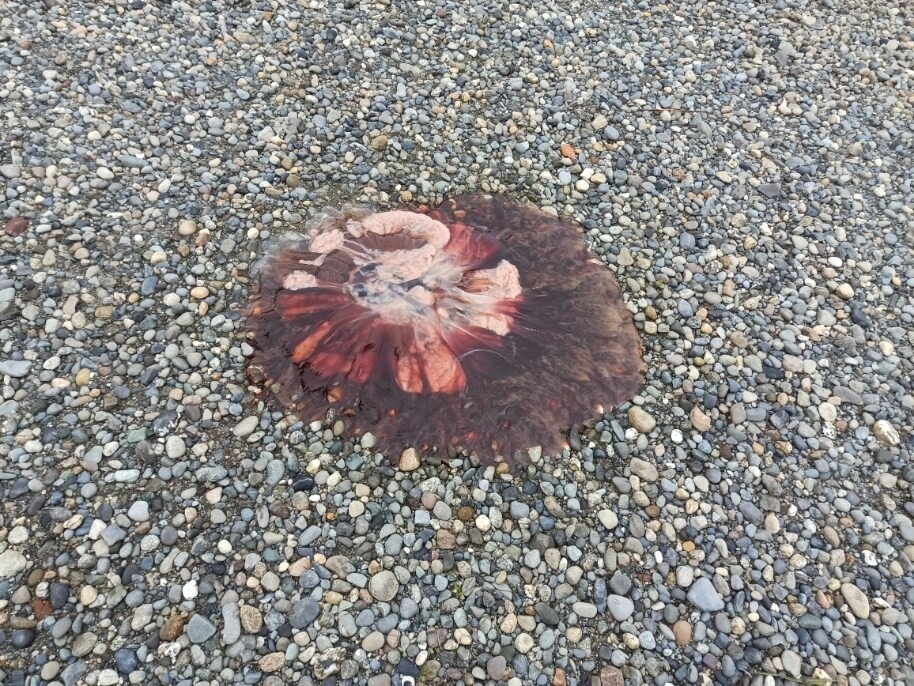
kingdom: Animalia
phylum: Cnidaria
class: Scyphozoa
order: Semaeostomeae
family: Cyaneidae
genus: Cyanea
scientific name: Cyanea ferruginea
